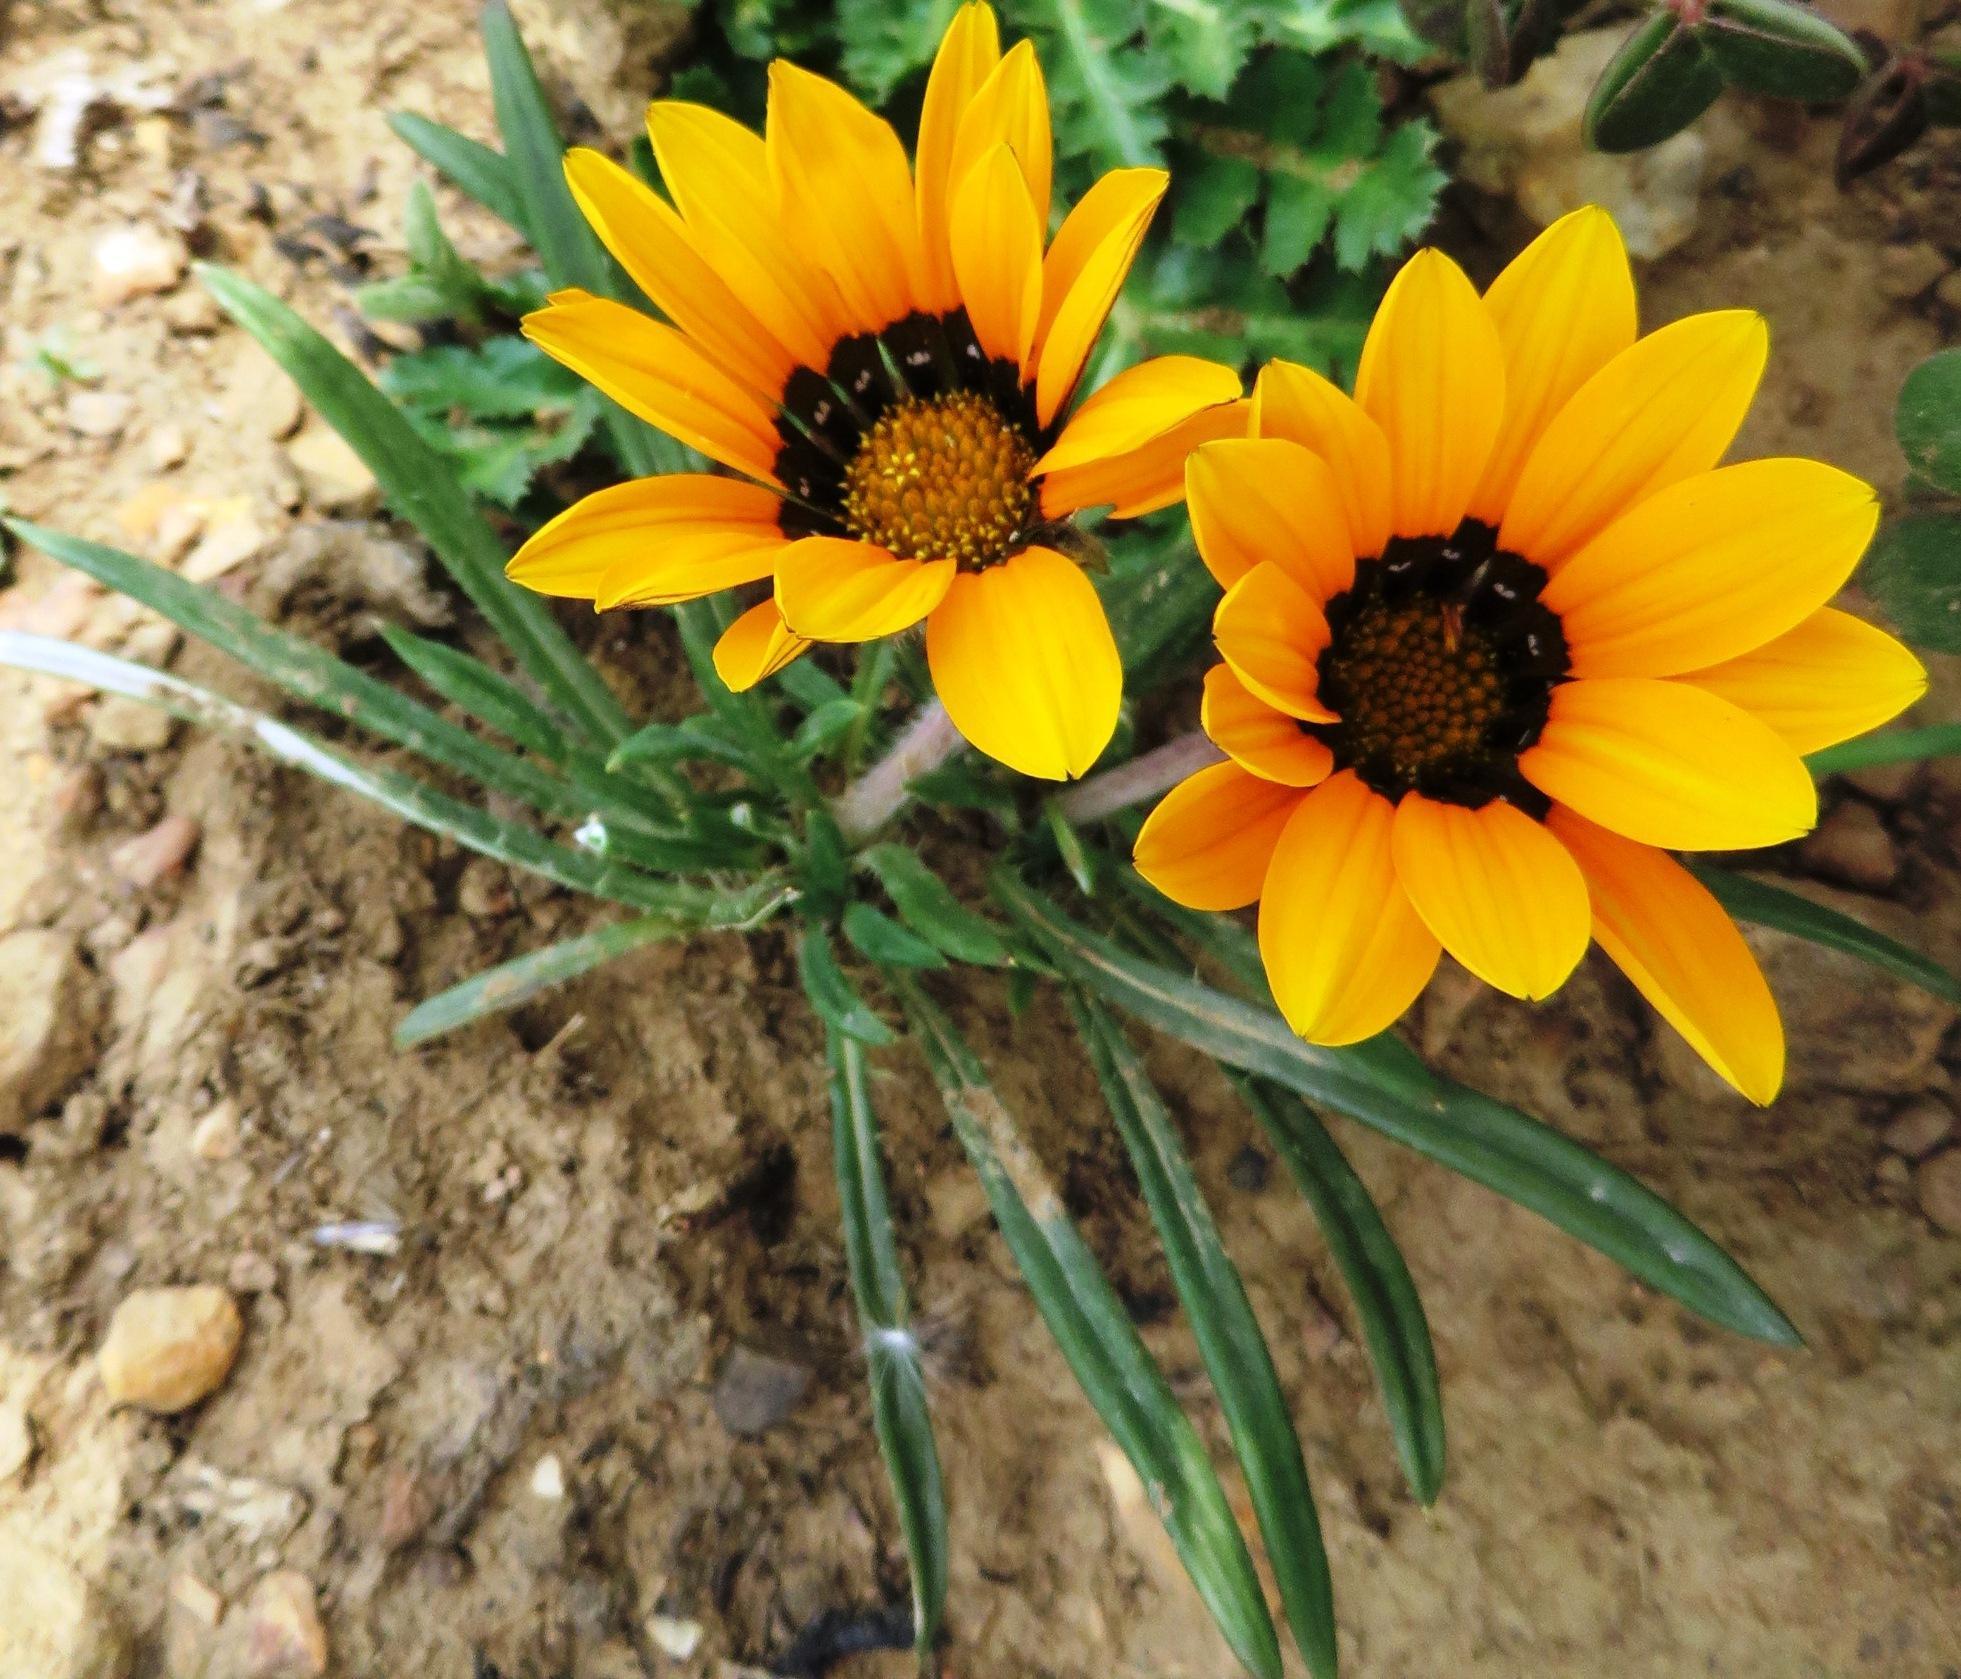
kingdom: Plantae
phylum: Tracheophyta
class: Magnoliopsida
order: Asterales
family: Asteraceae
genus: Gazania
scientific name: Gazania ciliaris
